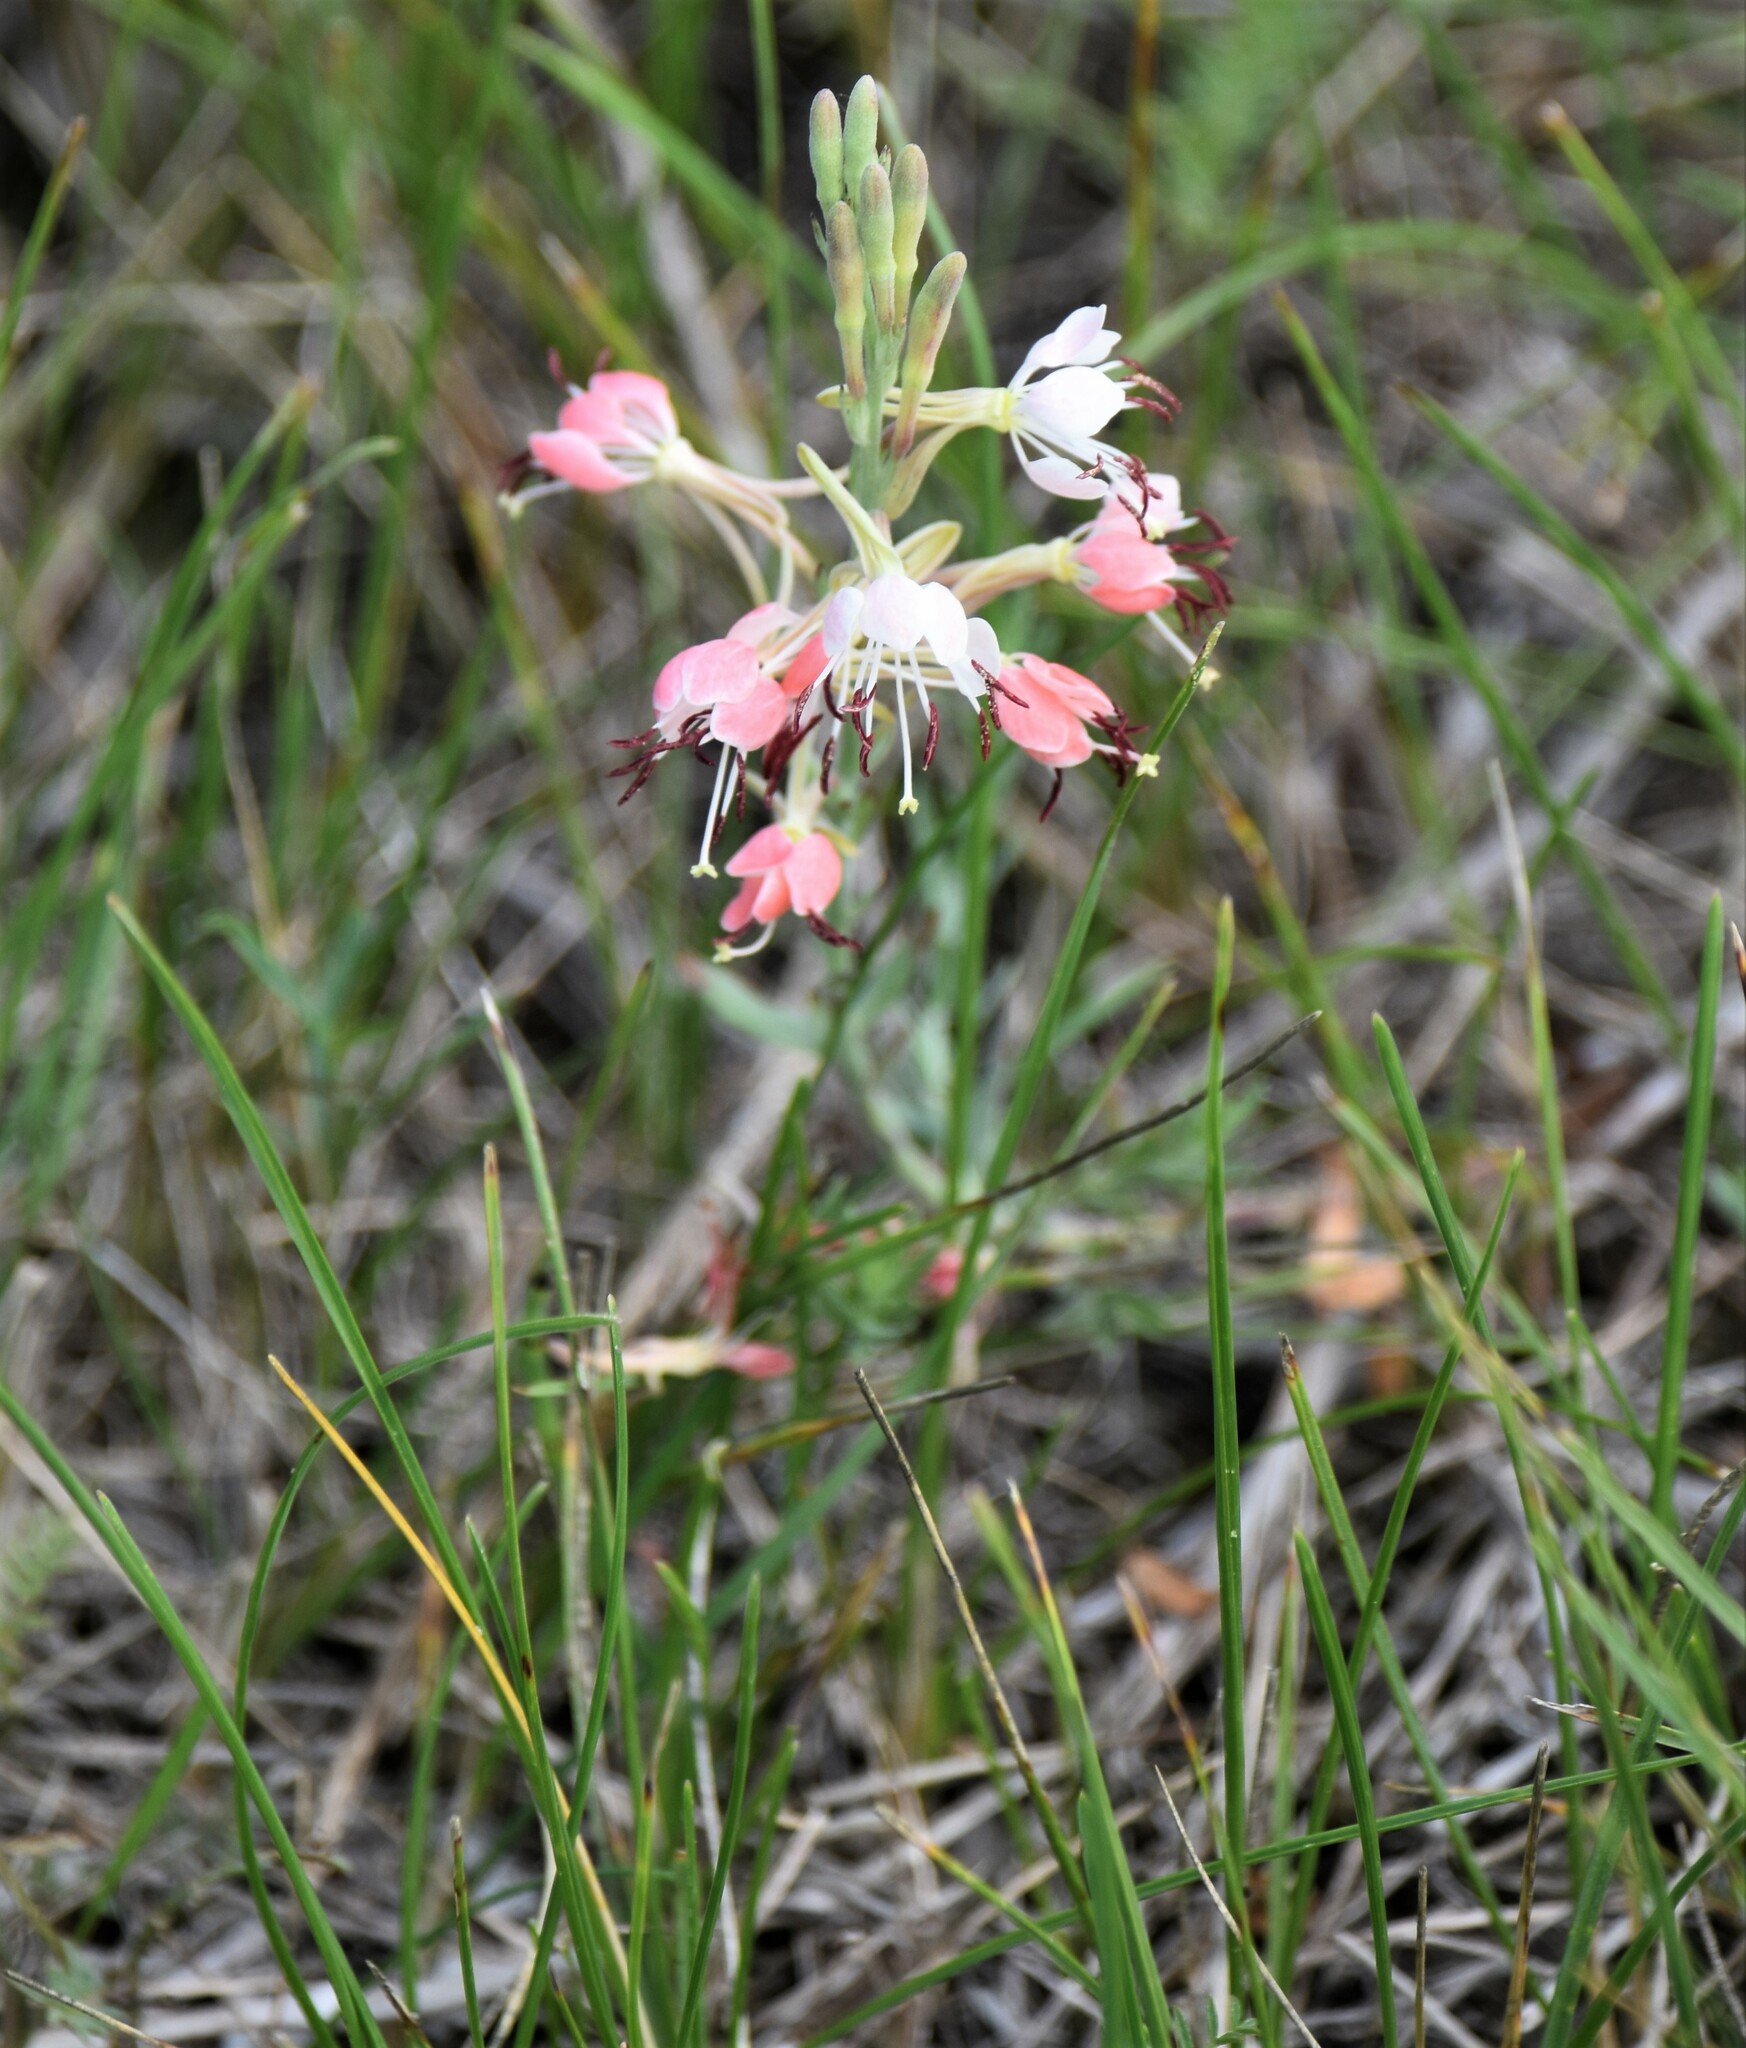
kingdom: Plantae
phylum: Tracheophyta
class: Magnoliopsida
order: Myrtales
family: Onagraceae
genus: Oenothera
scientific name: Oenothera suffrutescens
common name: Scarlet beeblossom
